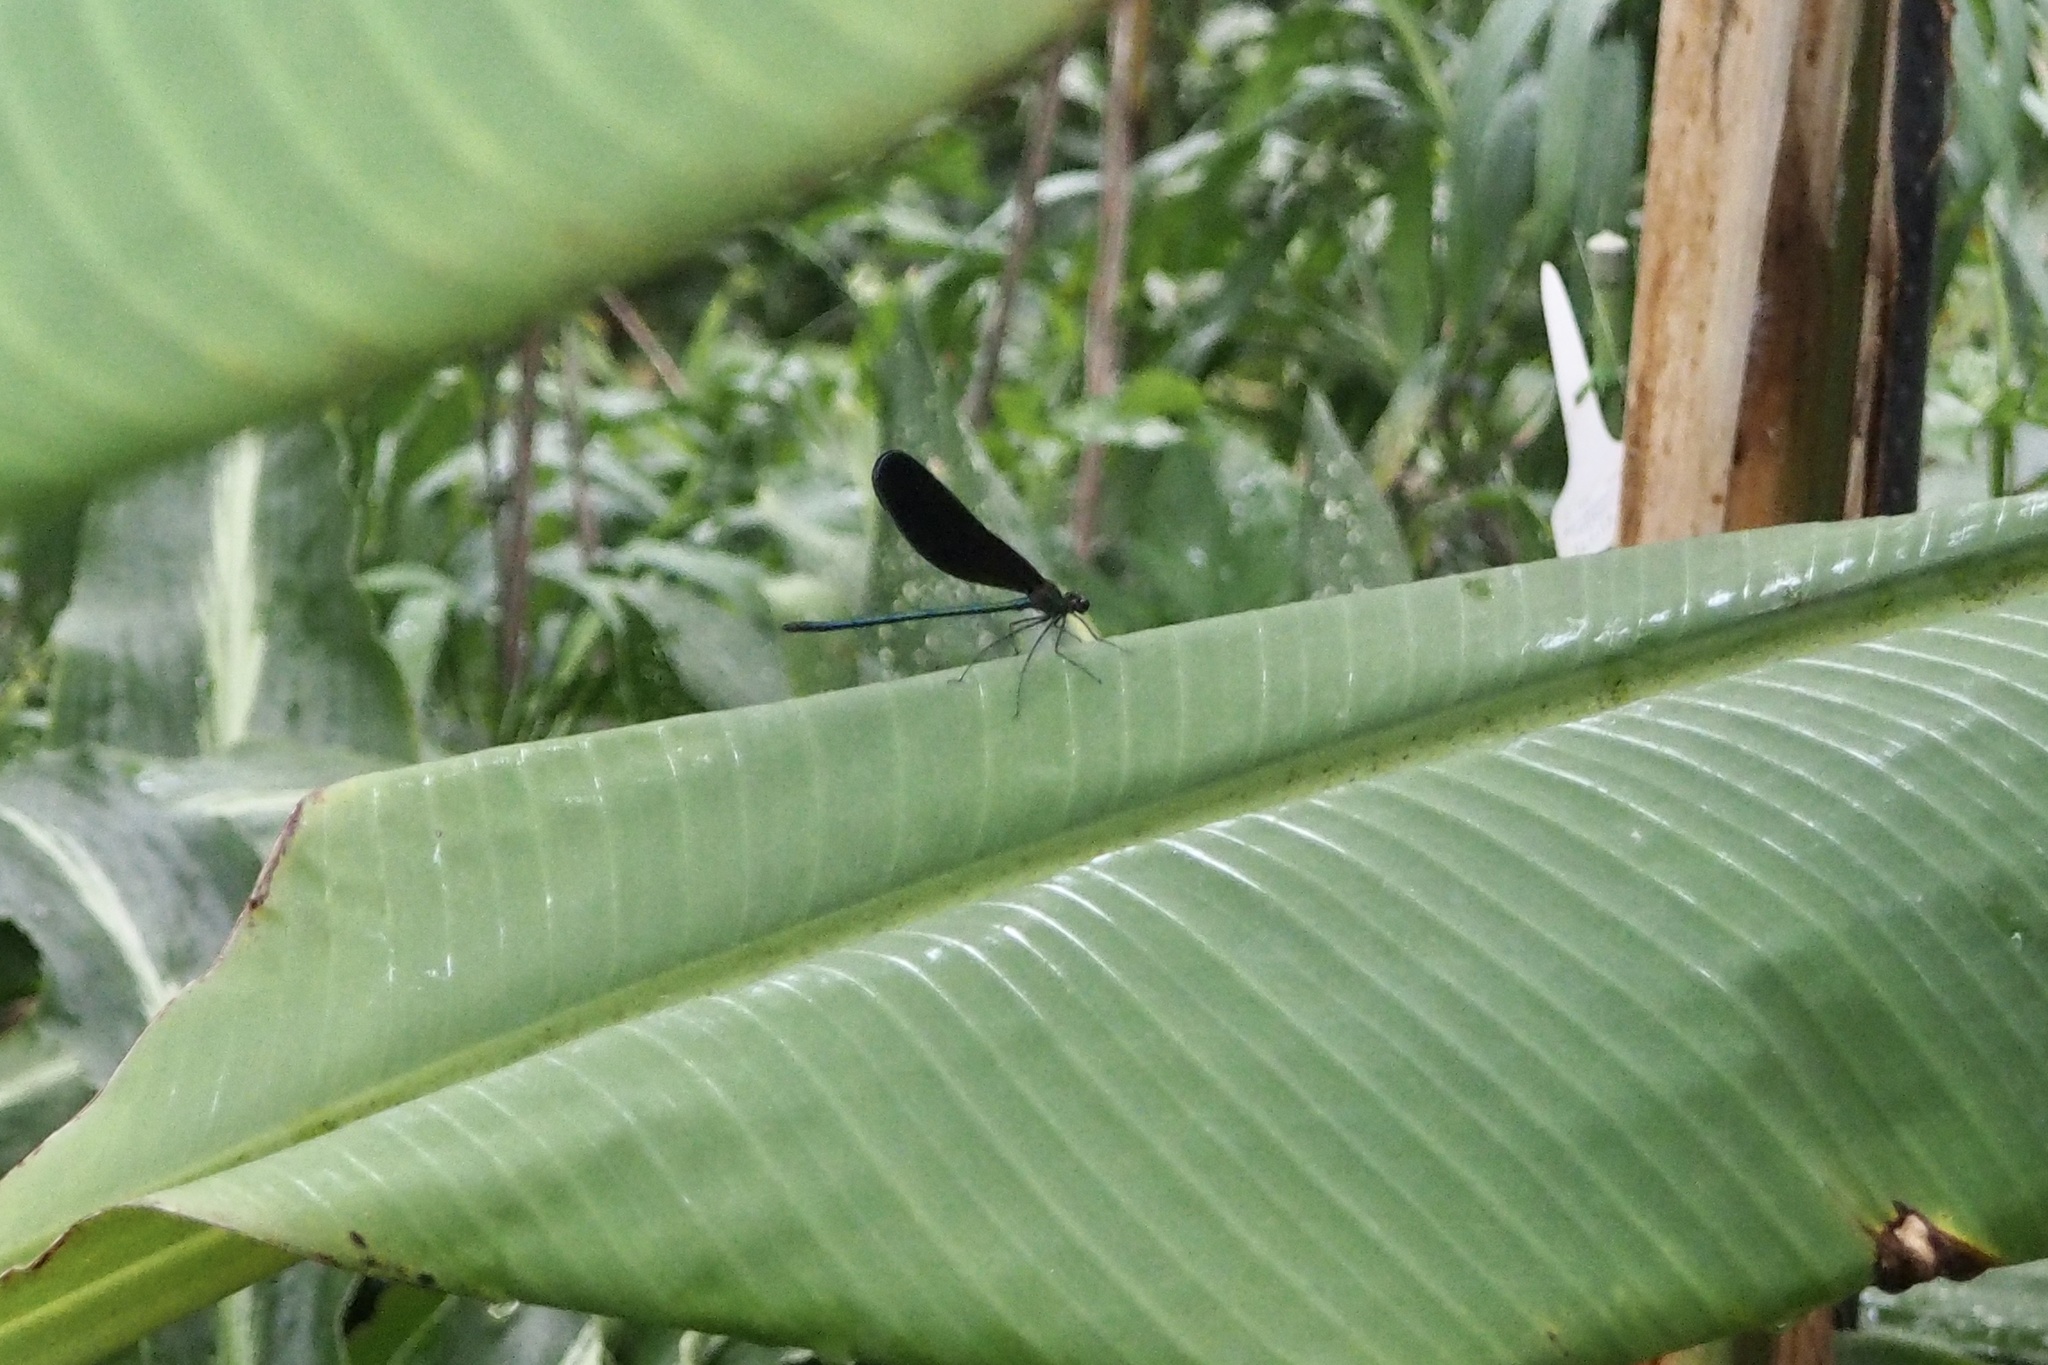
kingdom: Animalia
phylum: Arthropoda
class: Insecta
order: Odonata
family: Calopterygidae
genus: Atrocalopteryx
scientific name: Atrocalopteryx atrata
